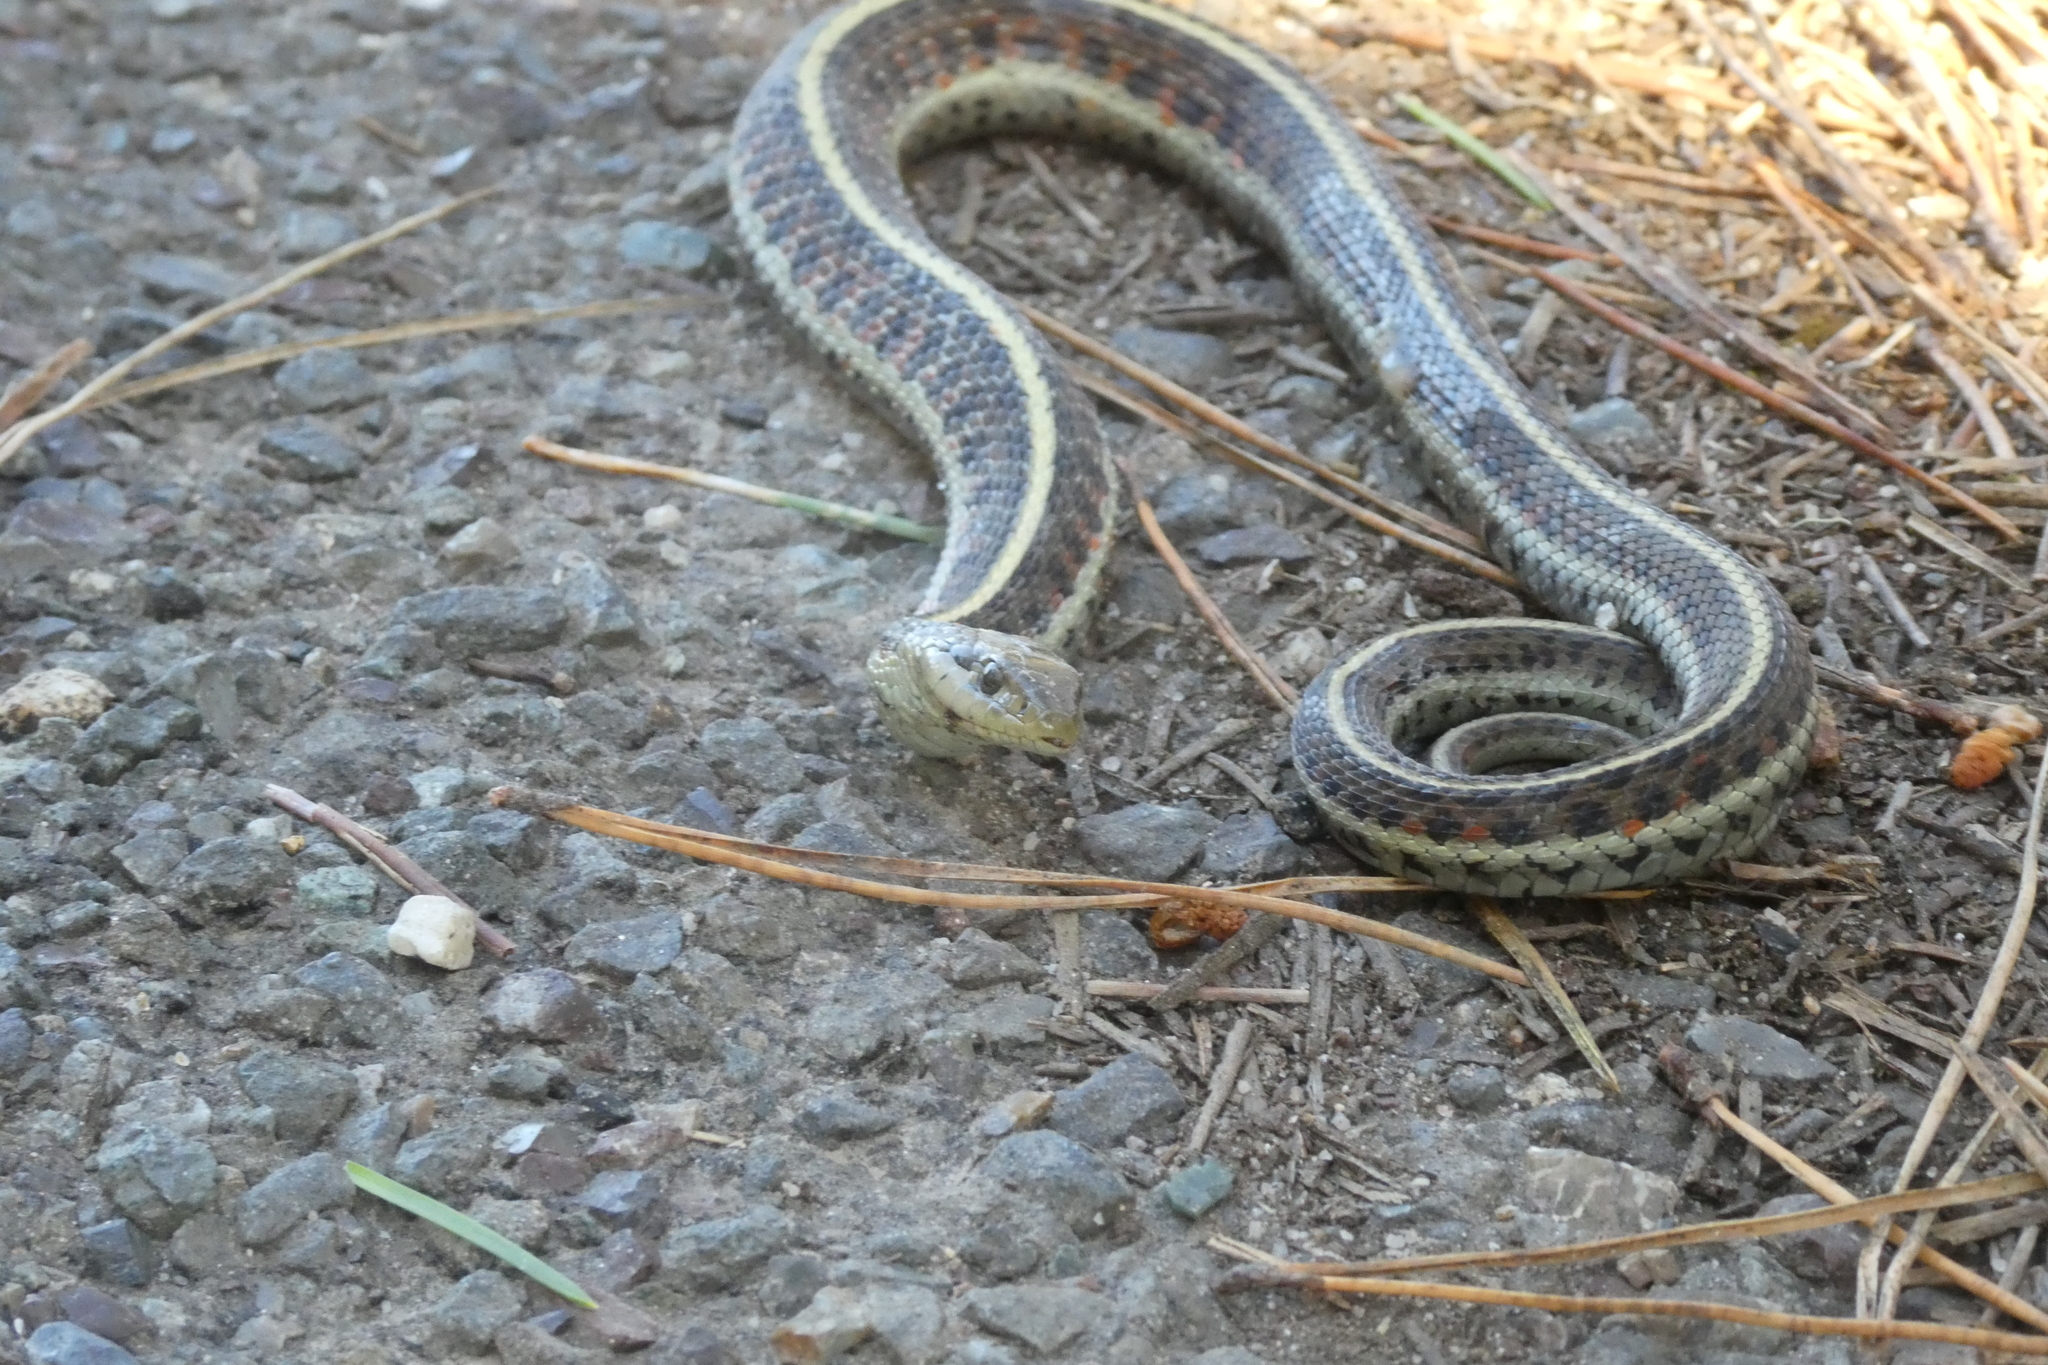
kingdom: Animalia
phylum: Chordata
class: Squamata
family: Colubridae
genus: Thamnophis
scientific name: Thamnophis elegans
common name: Western terrestrial garter snake
